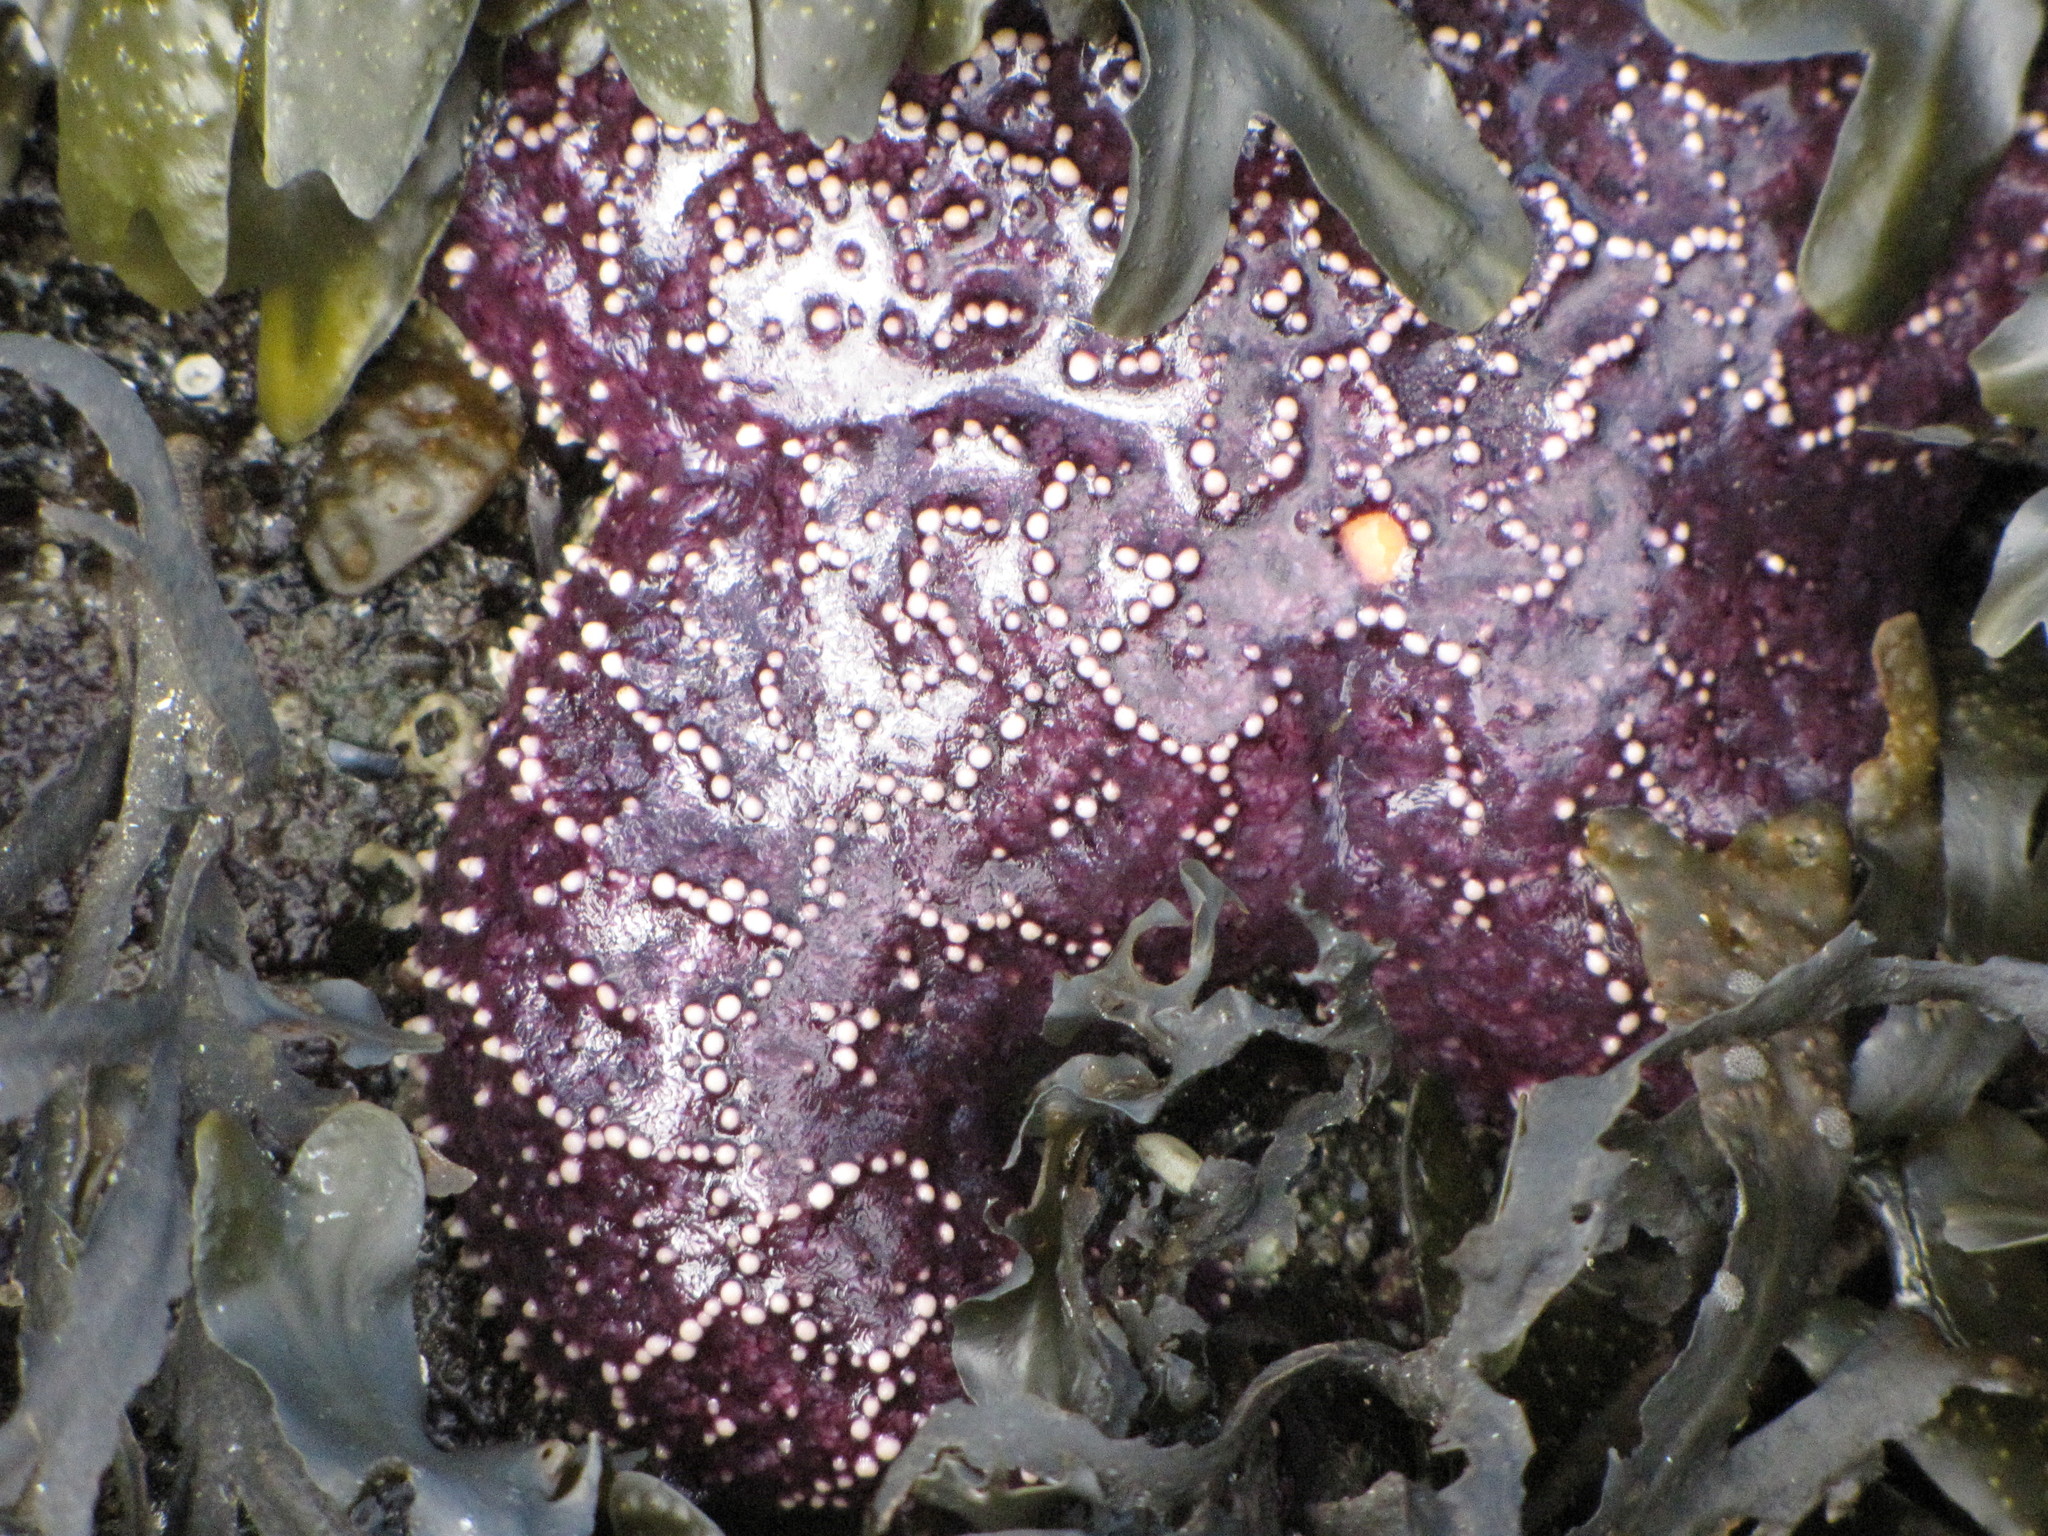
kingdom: Animalia
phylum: Echinodermata
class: Asteroidea
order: Forcipulatida
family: Asteriidae
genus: Pisaster
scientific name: Pisaster ochraceus
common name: Ochre stars
